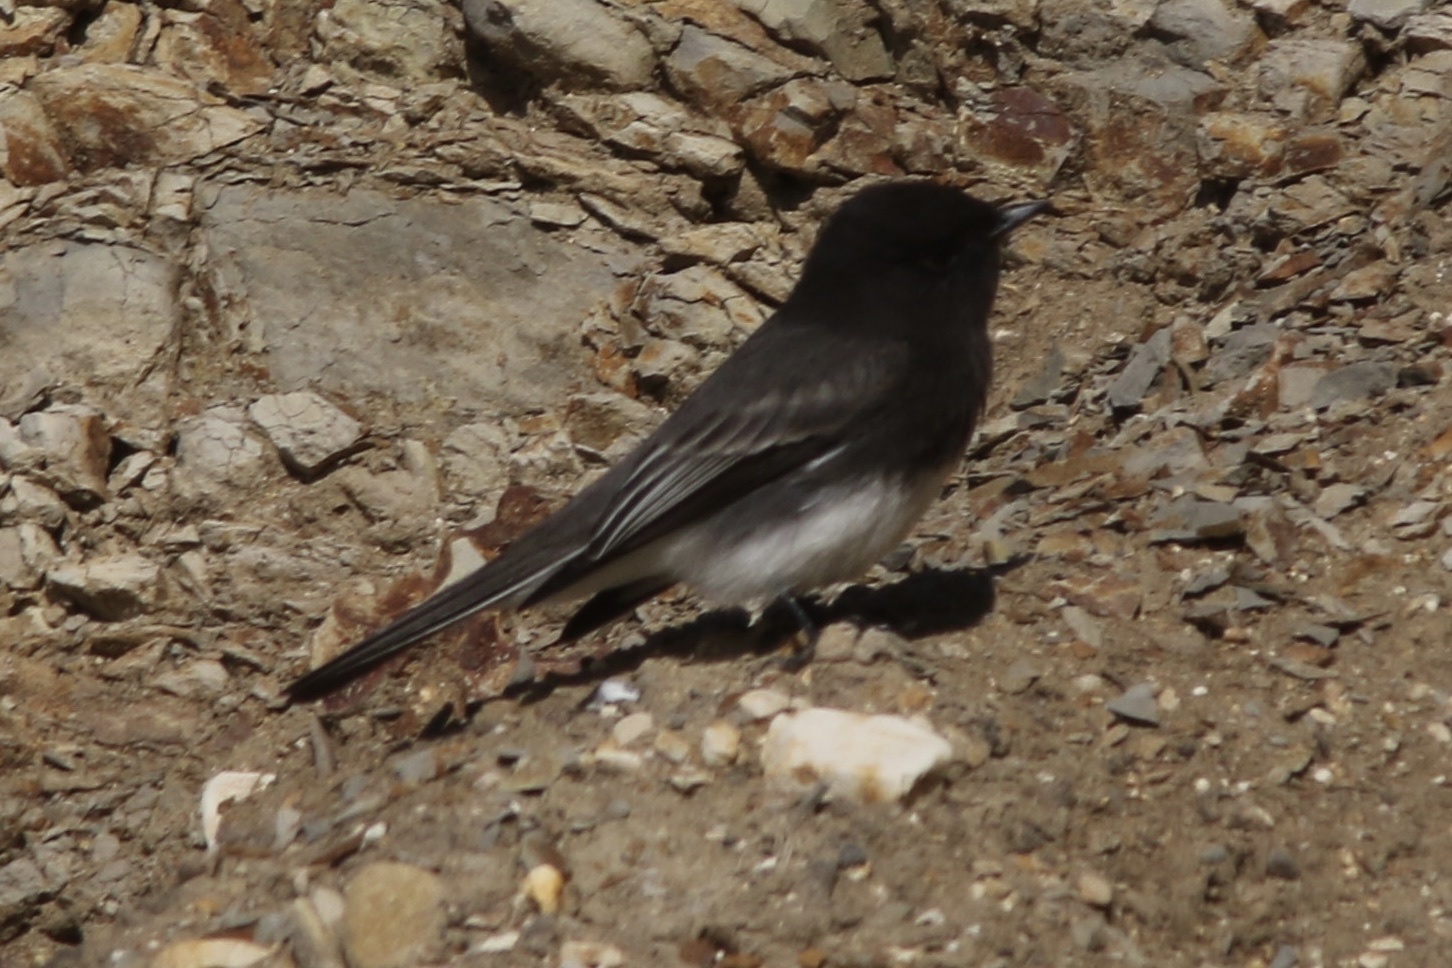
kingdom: Animalia
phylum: Chordata
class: Aves
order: Passeriformes
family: Tyrannidae
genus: Sayornis
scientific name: Sayornis nigricans
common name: Black phoebe
